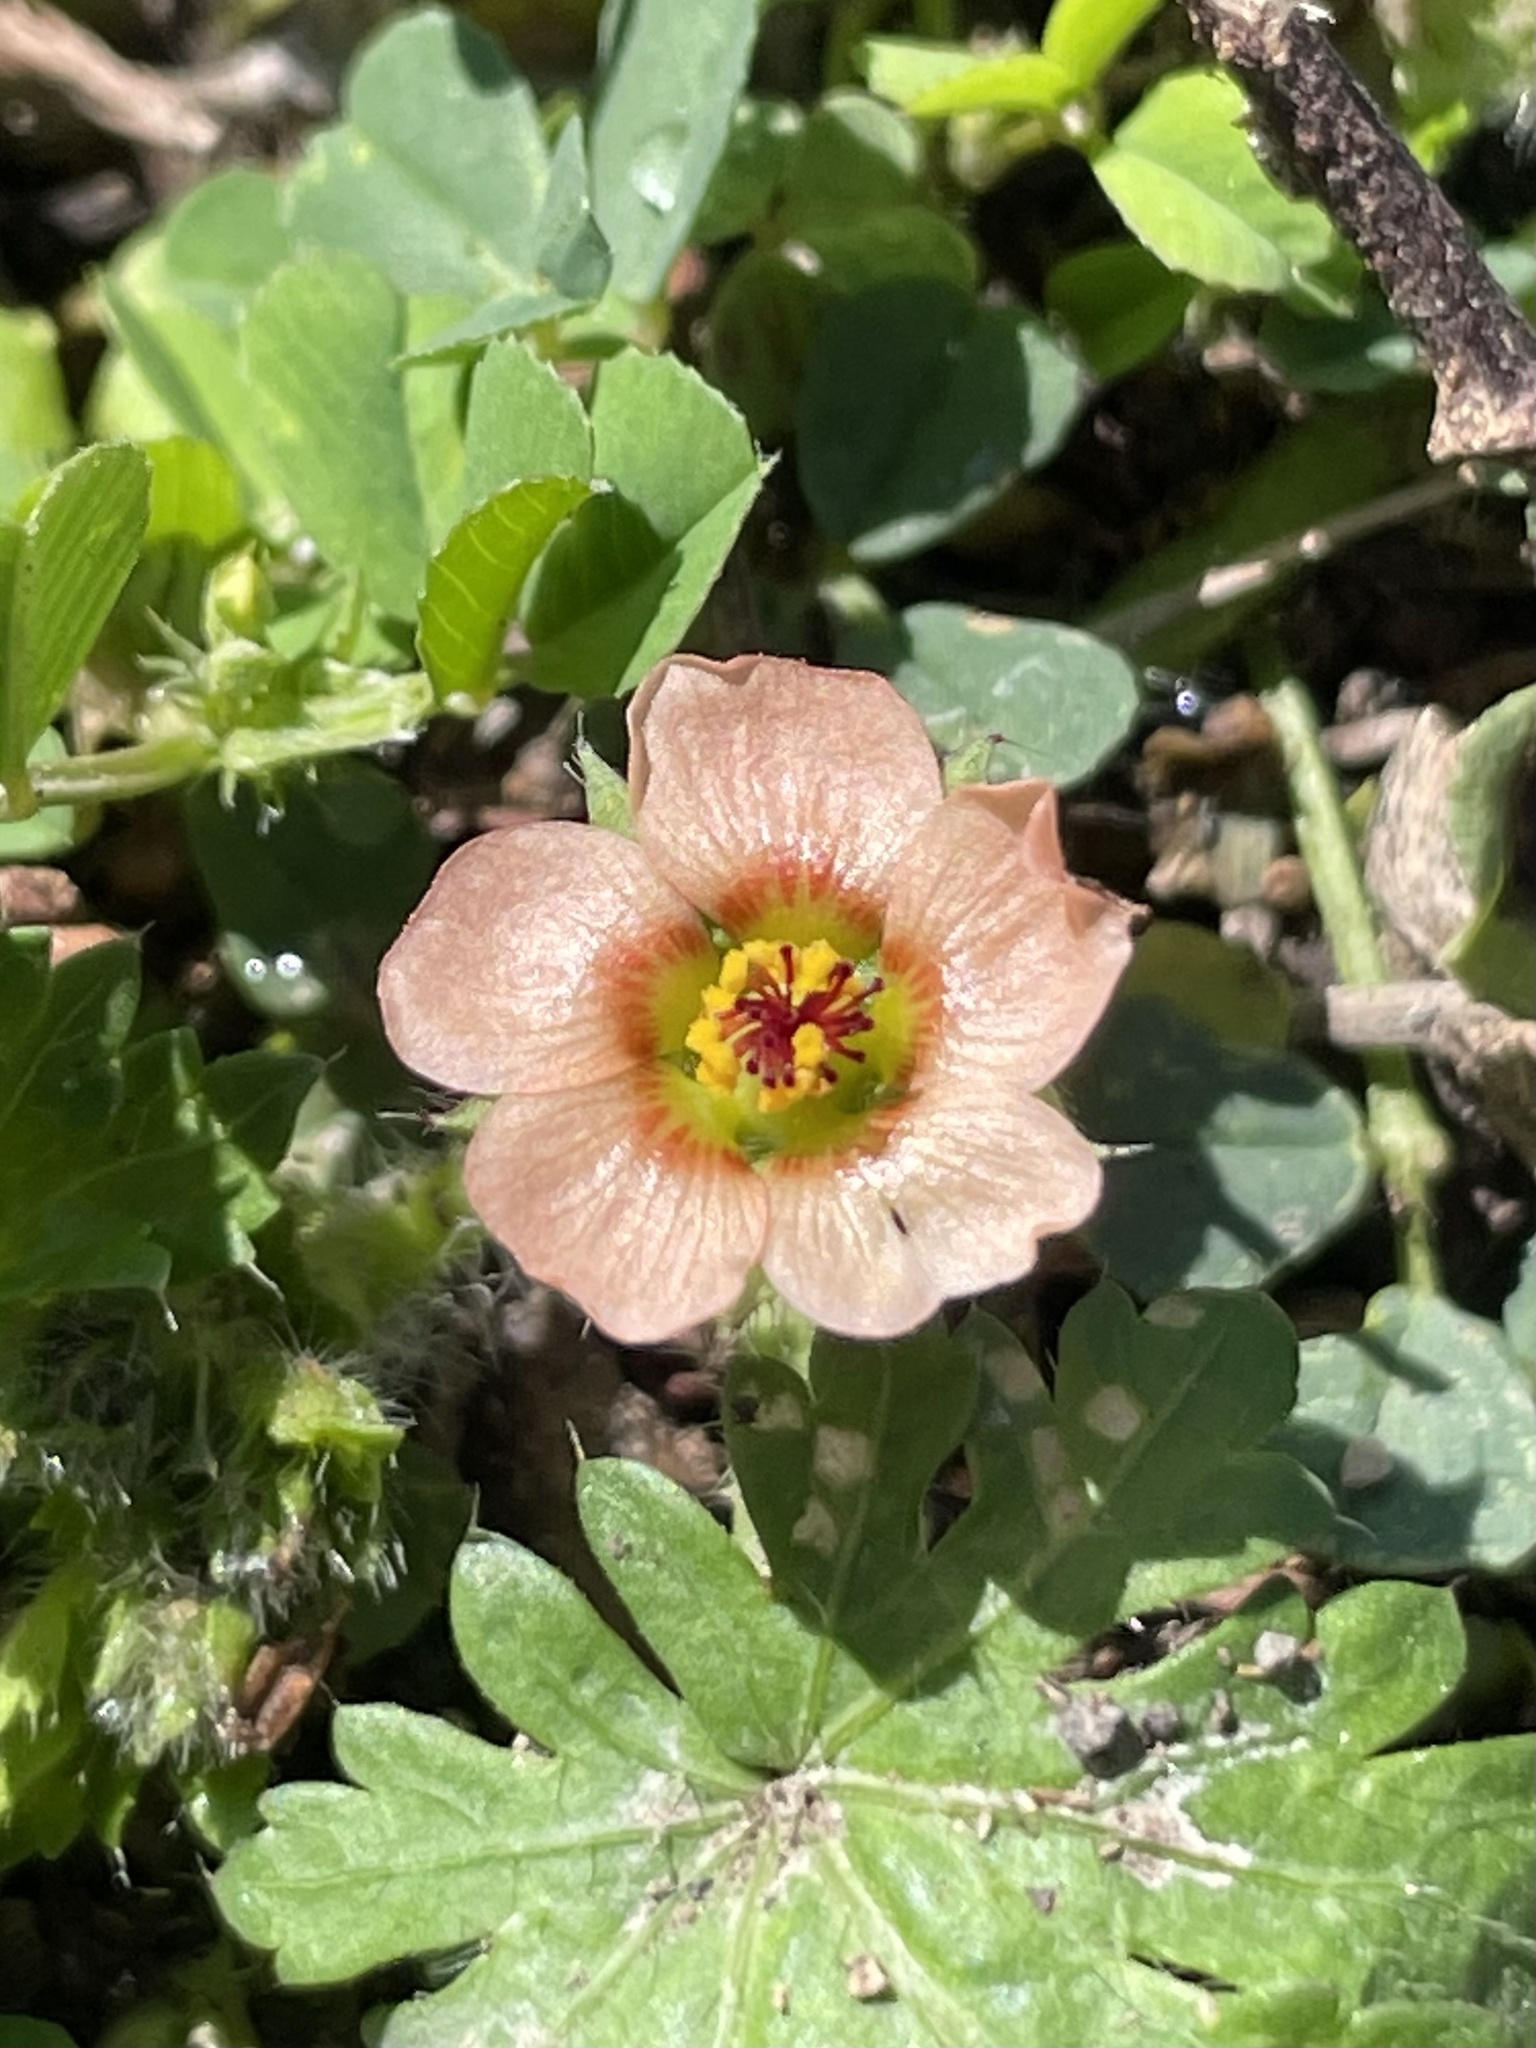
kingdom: Plantae
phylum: Tracheophyta
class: Magnoliopsida
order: Malvales
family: Malvaceae
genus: Modiola
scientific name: Modiola caroliniana
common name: Carolina bristlemallow
